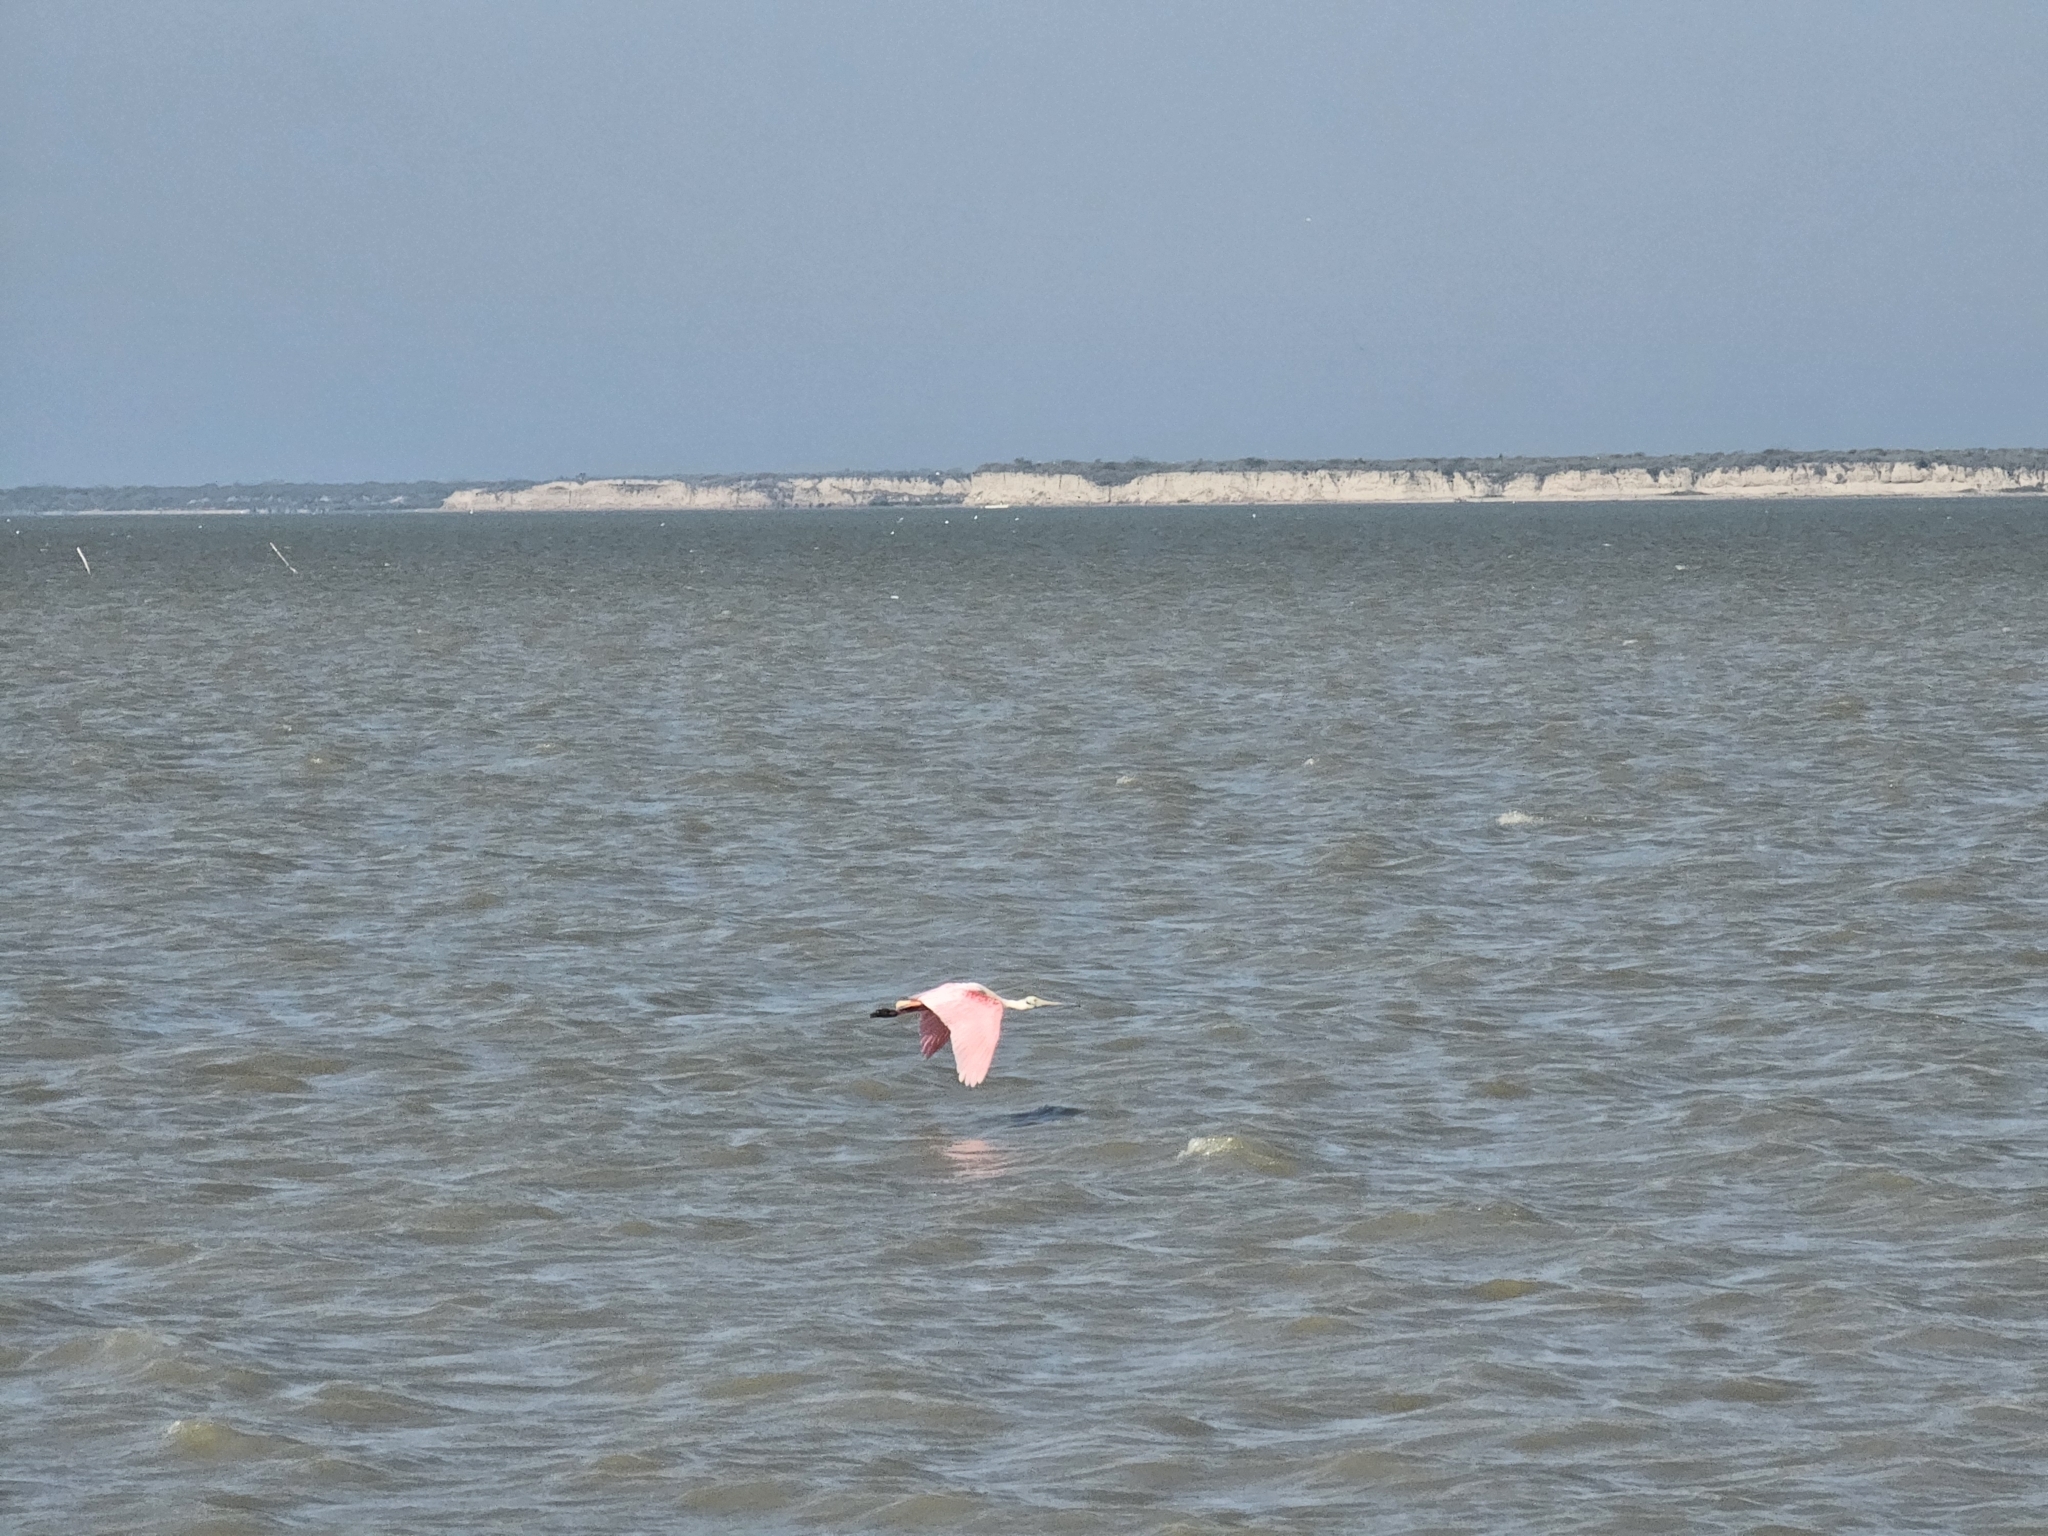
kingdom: Animalia
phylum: Chordata
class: Aves
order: Pelecaniformes
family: Threskiornithidae
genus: Platalea
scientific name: Platalea ajaja
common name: Roseate spoonbill
